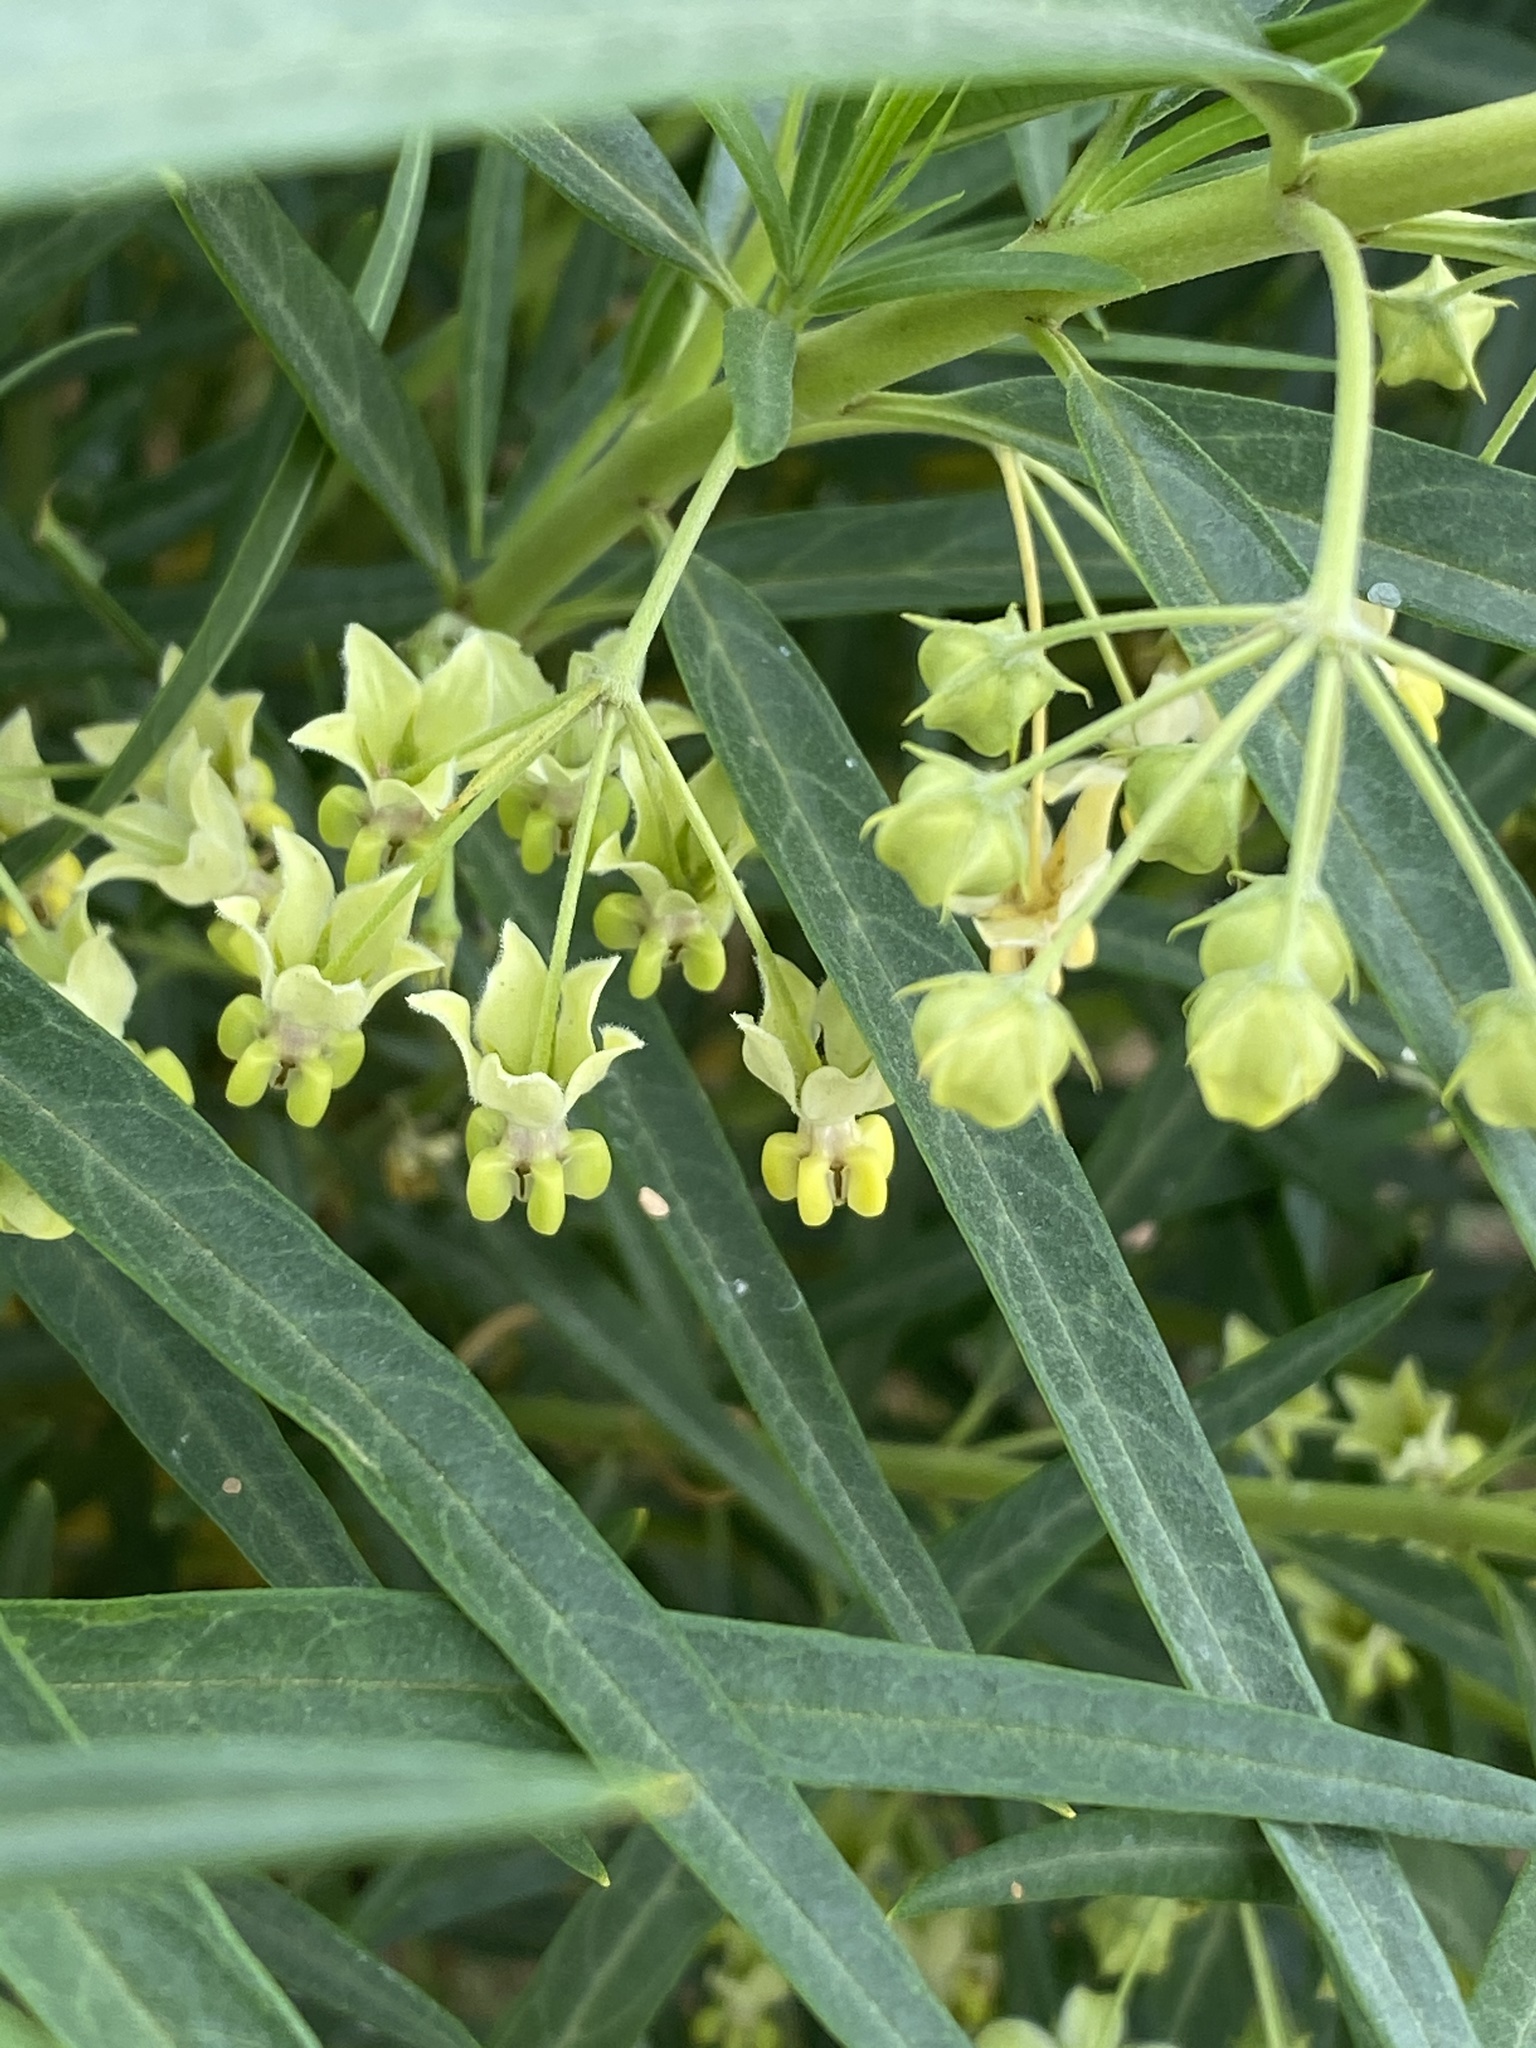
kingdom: Plantae
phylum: Tracheophyta
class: Magnoliopsida
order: Gentianales
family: Apocynaceae
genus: Gomphocarpus
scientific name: Gomphocarpus fruticosus
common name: Milkweed
